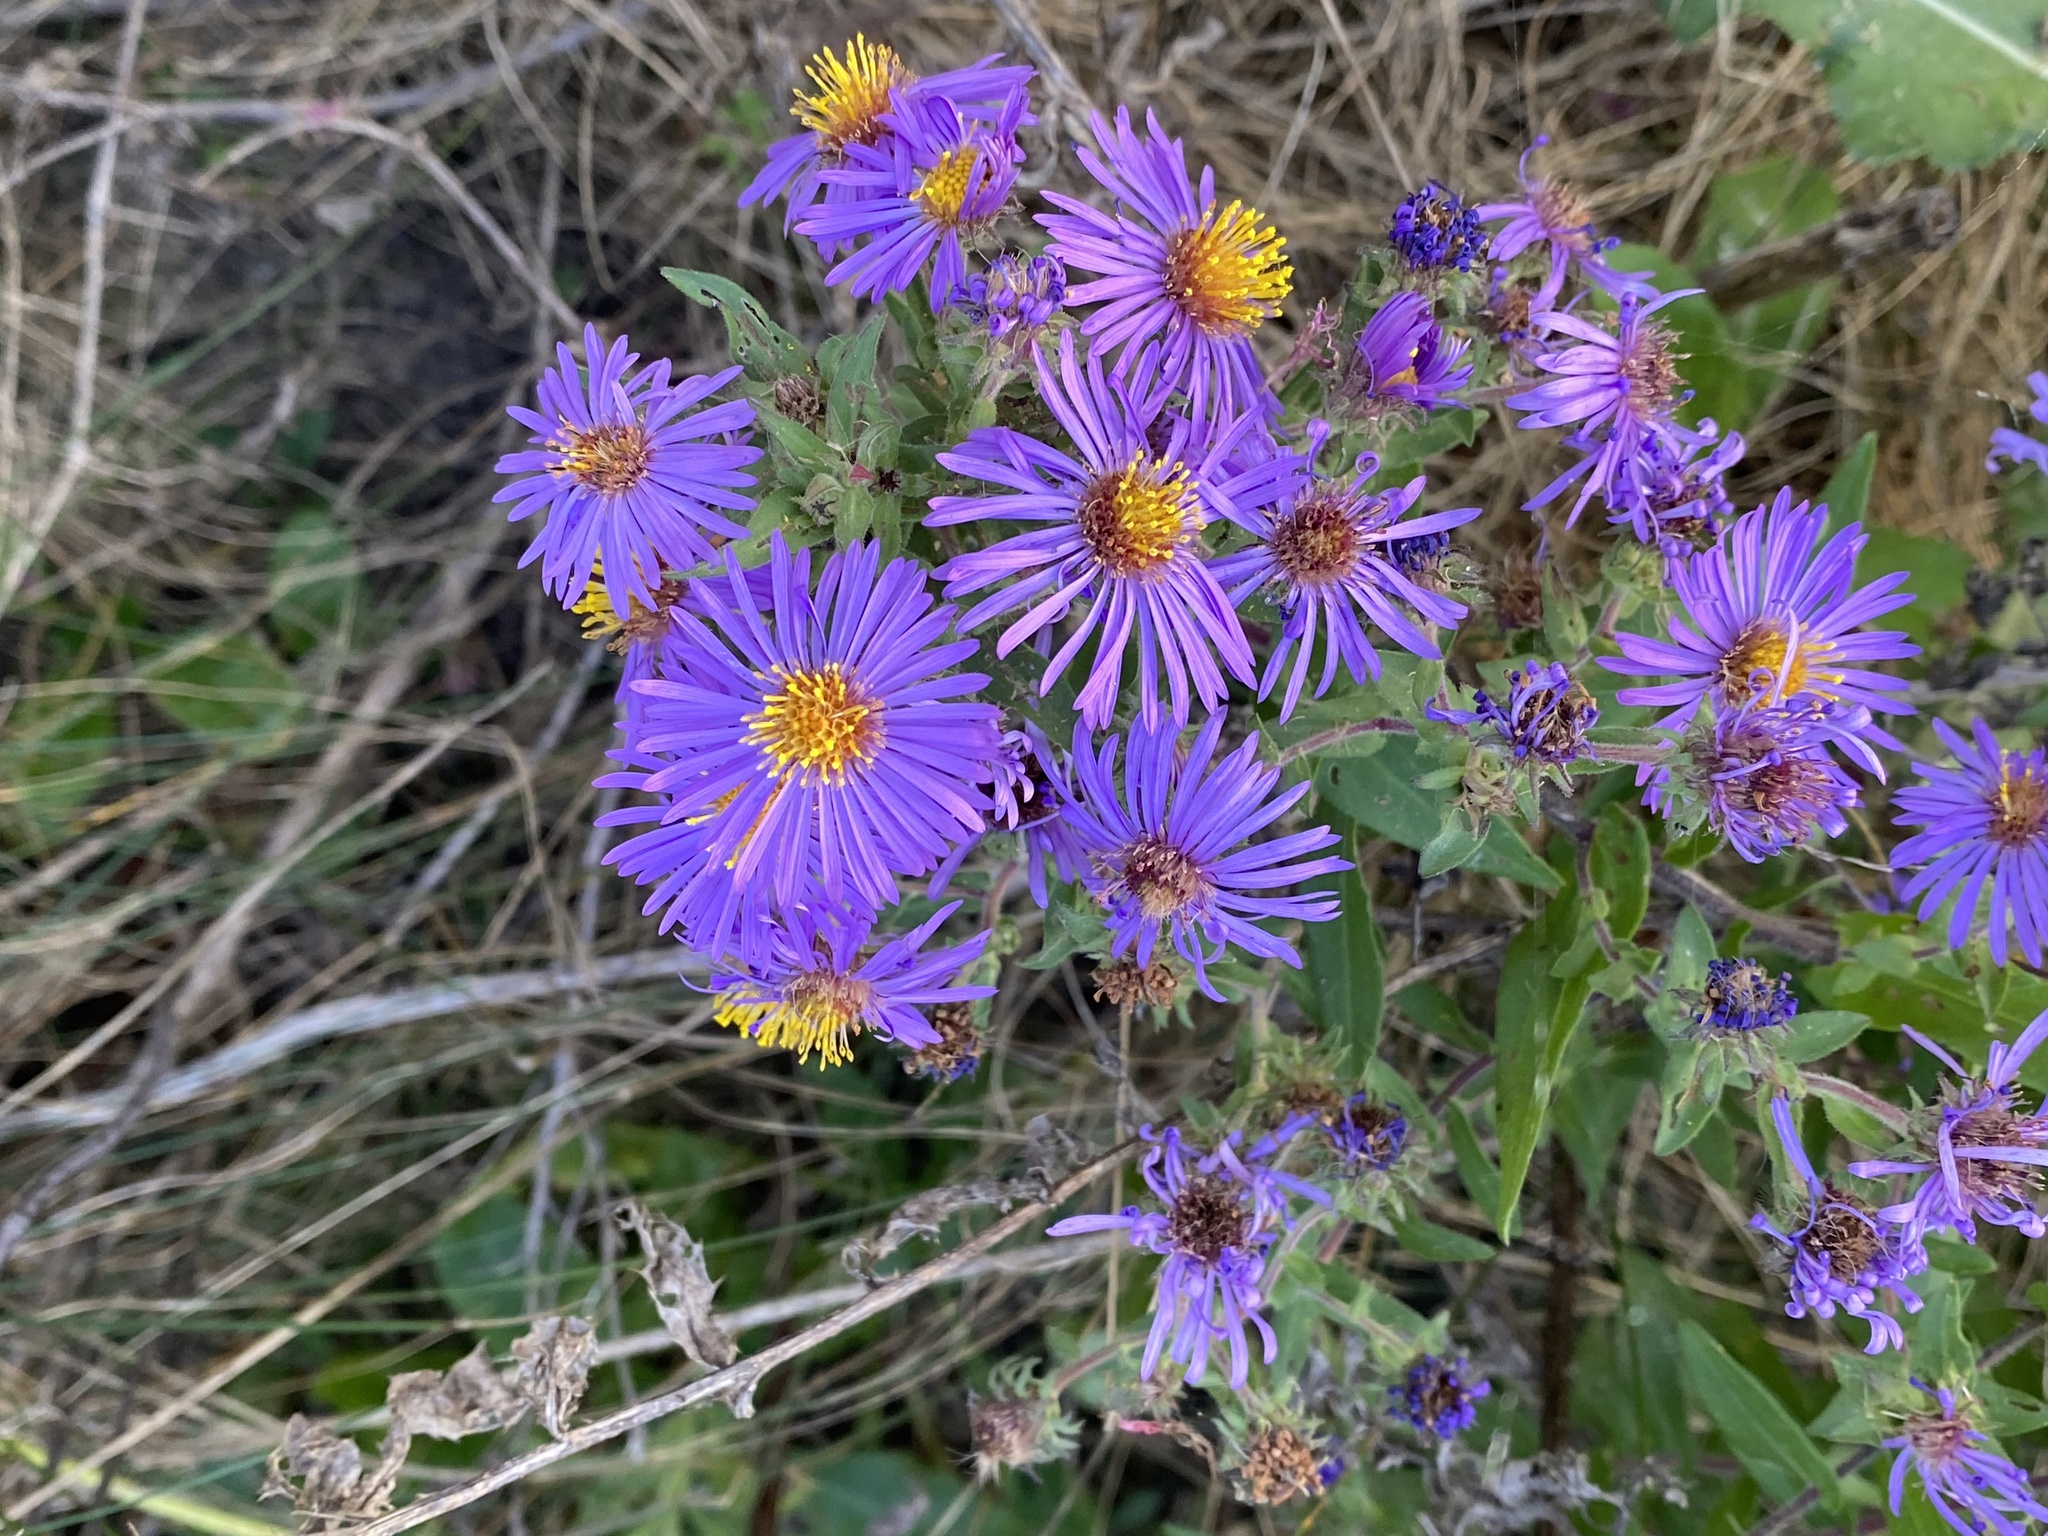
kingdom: Plantae
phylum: Tracheophyta
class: Magnoliopsida
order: Asterales
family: Asteraceae
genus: Symphyotrichum
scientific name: Symphyotrichum novae-angliae
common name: Michaelmas daisy
